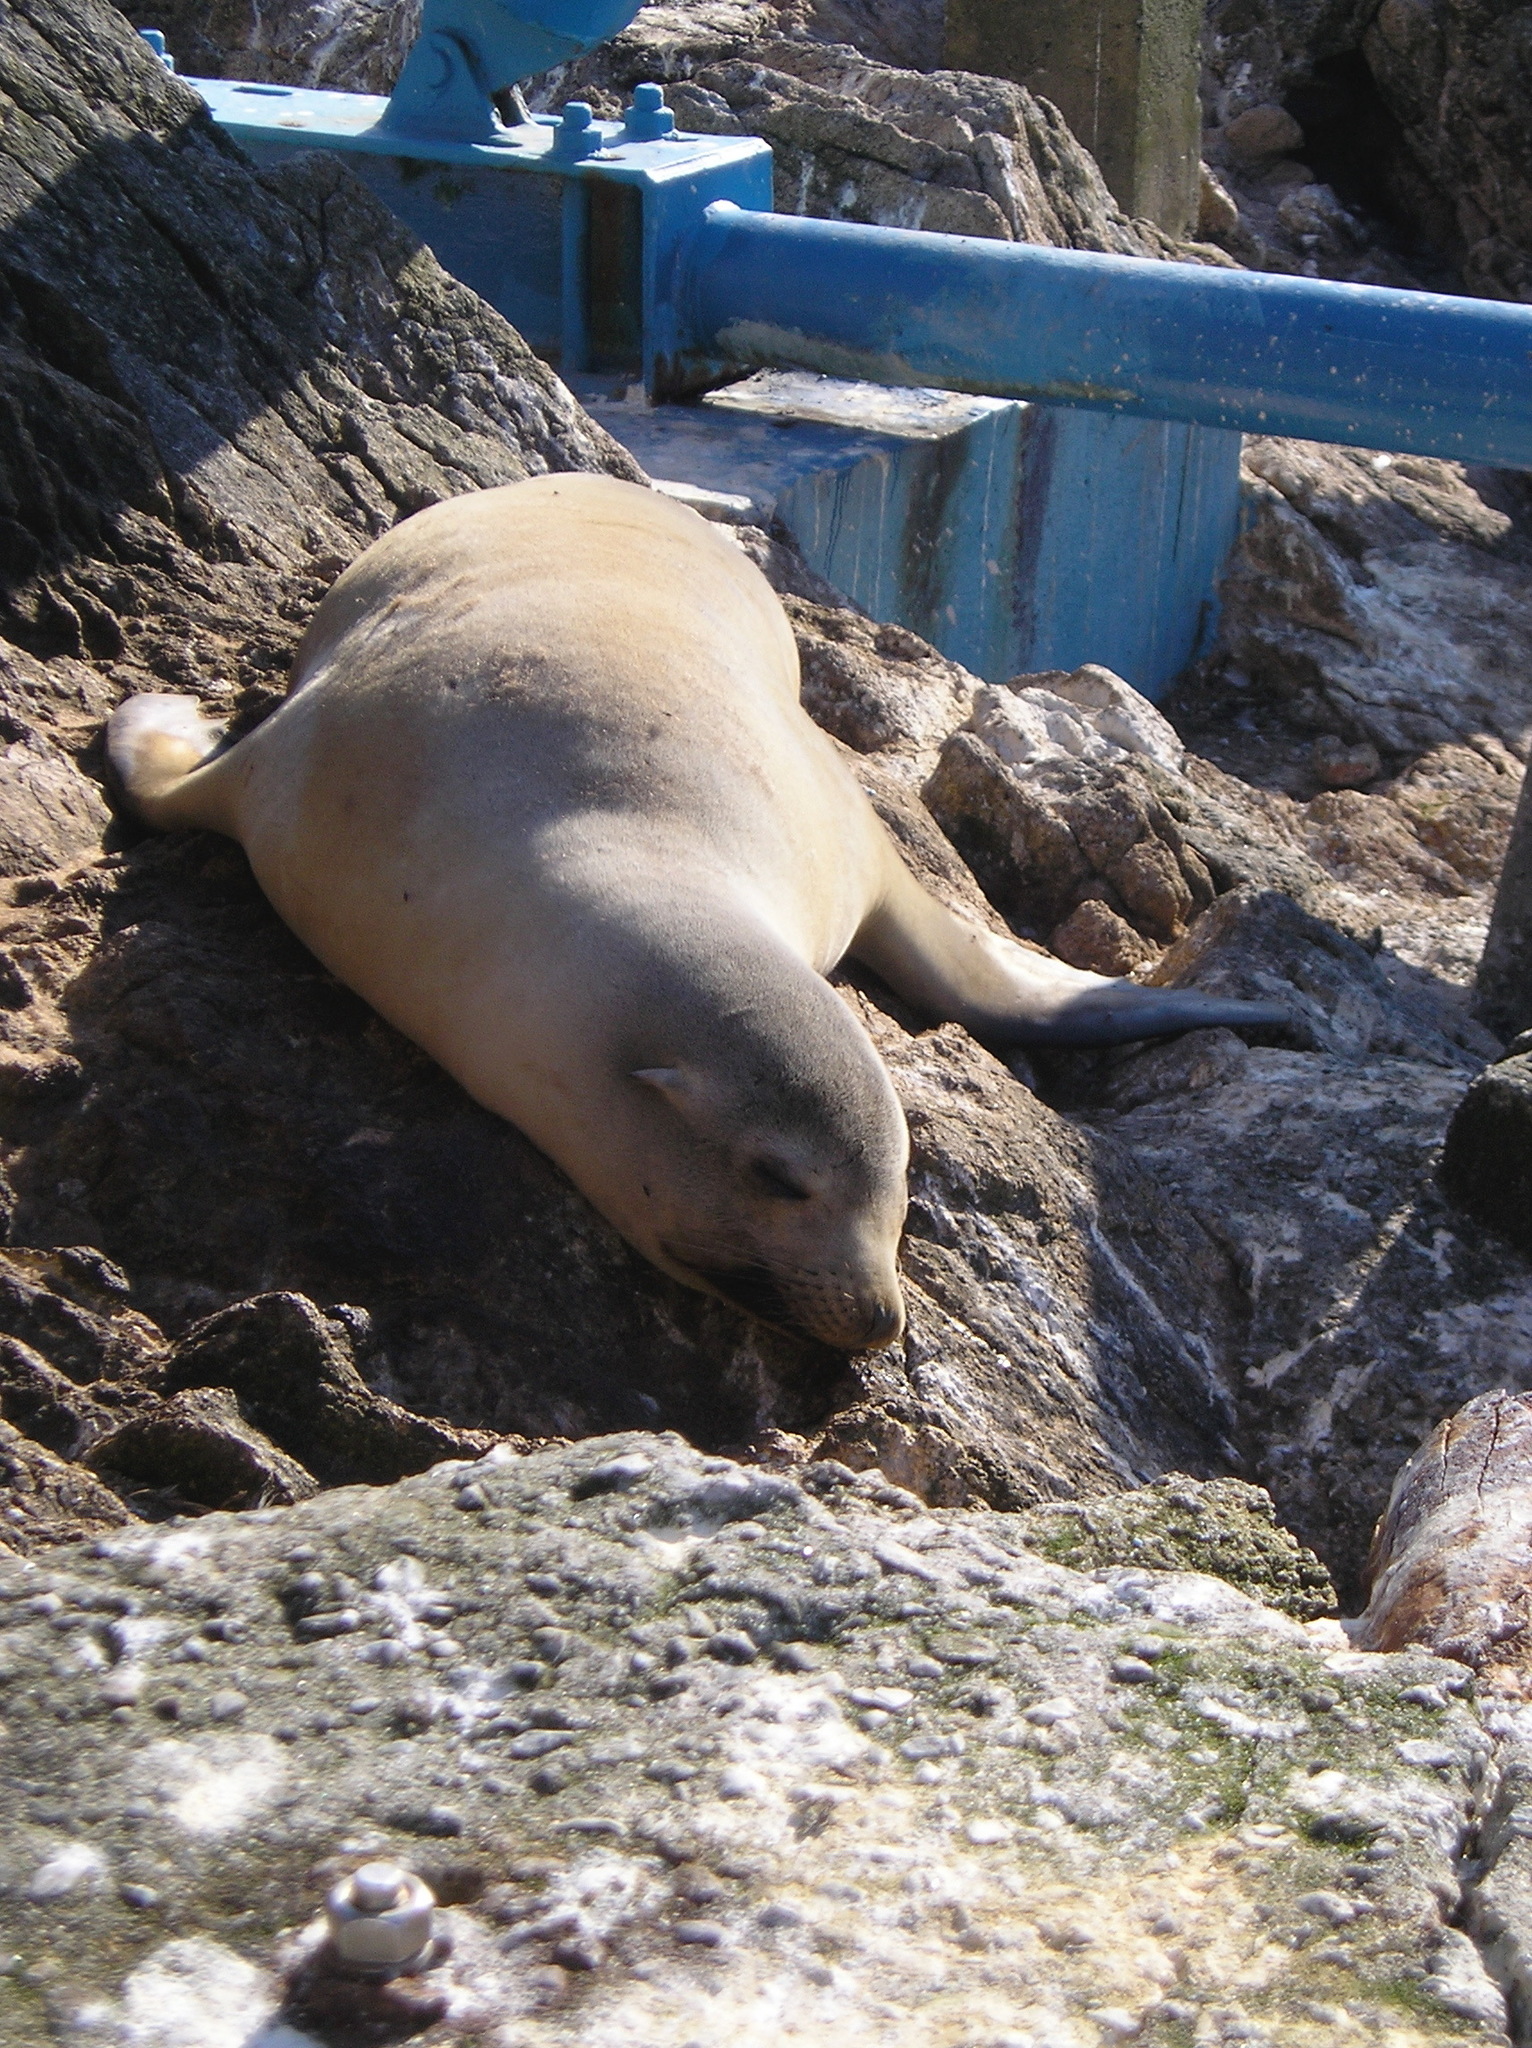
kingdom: Animalia
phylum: Chordata
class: Mammalia
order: Carnivora
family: Otariidae
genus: Zalophus
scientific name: Zalophus californianus
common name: California sea lion
